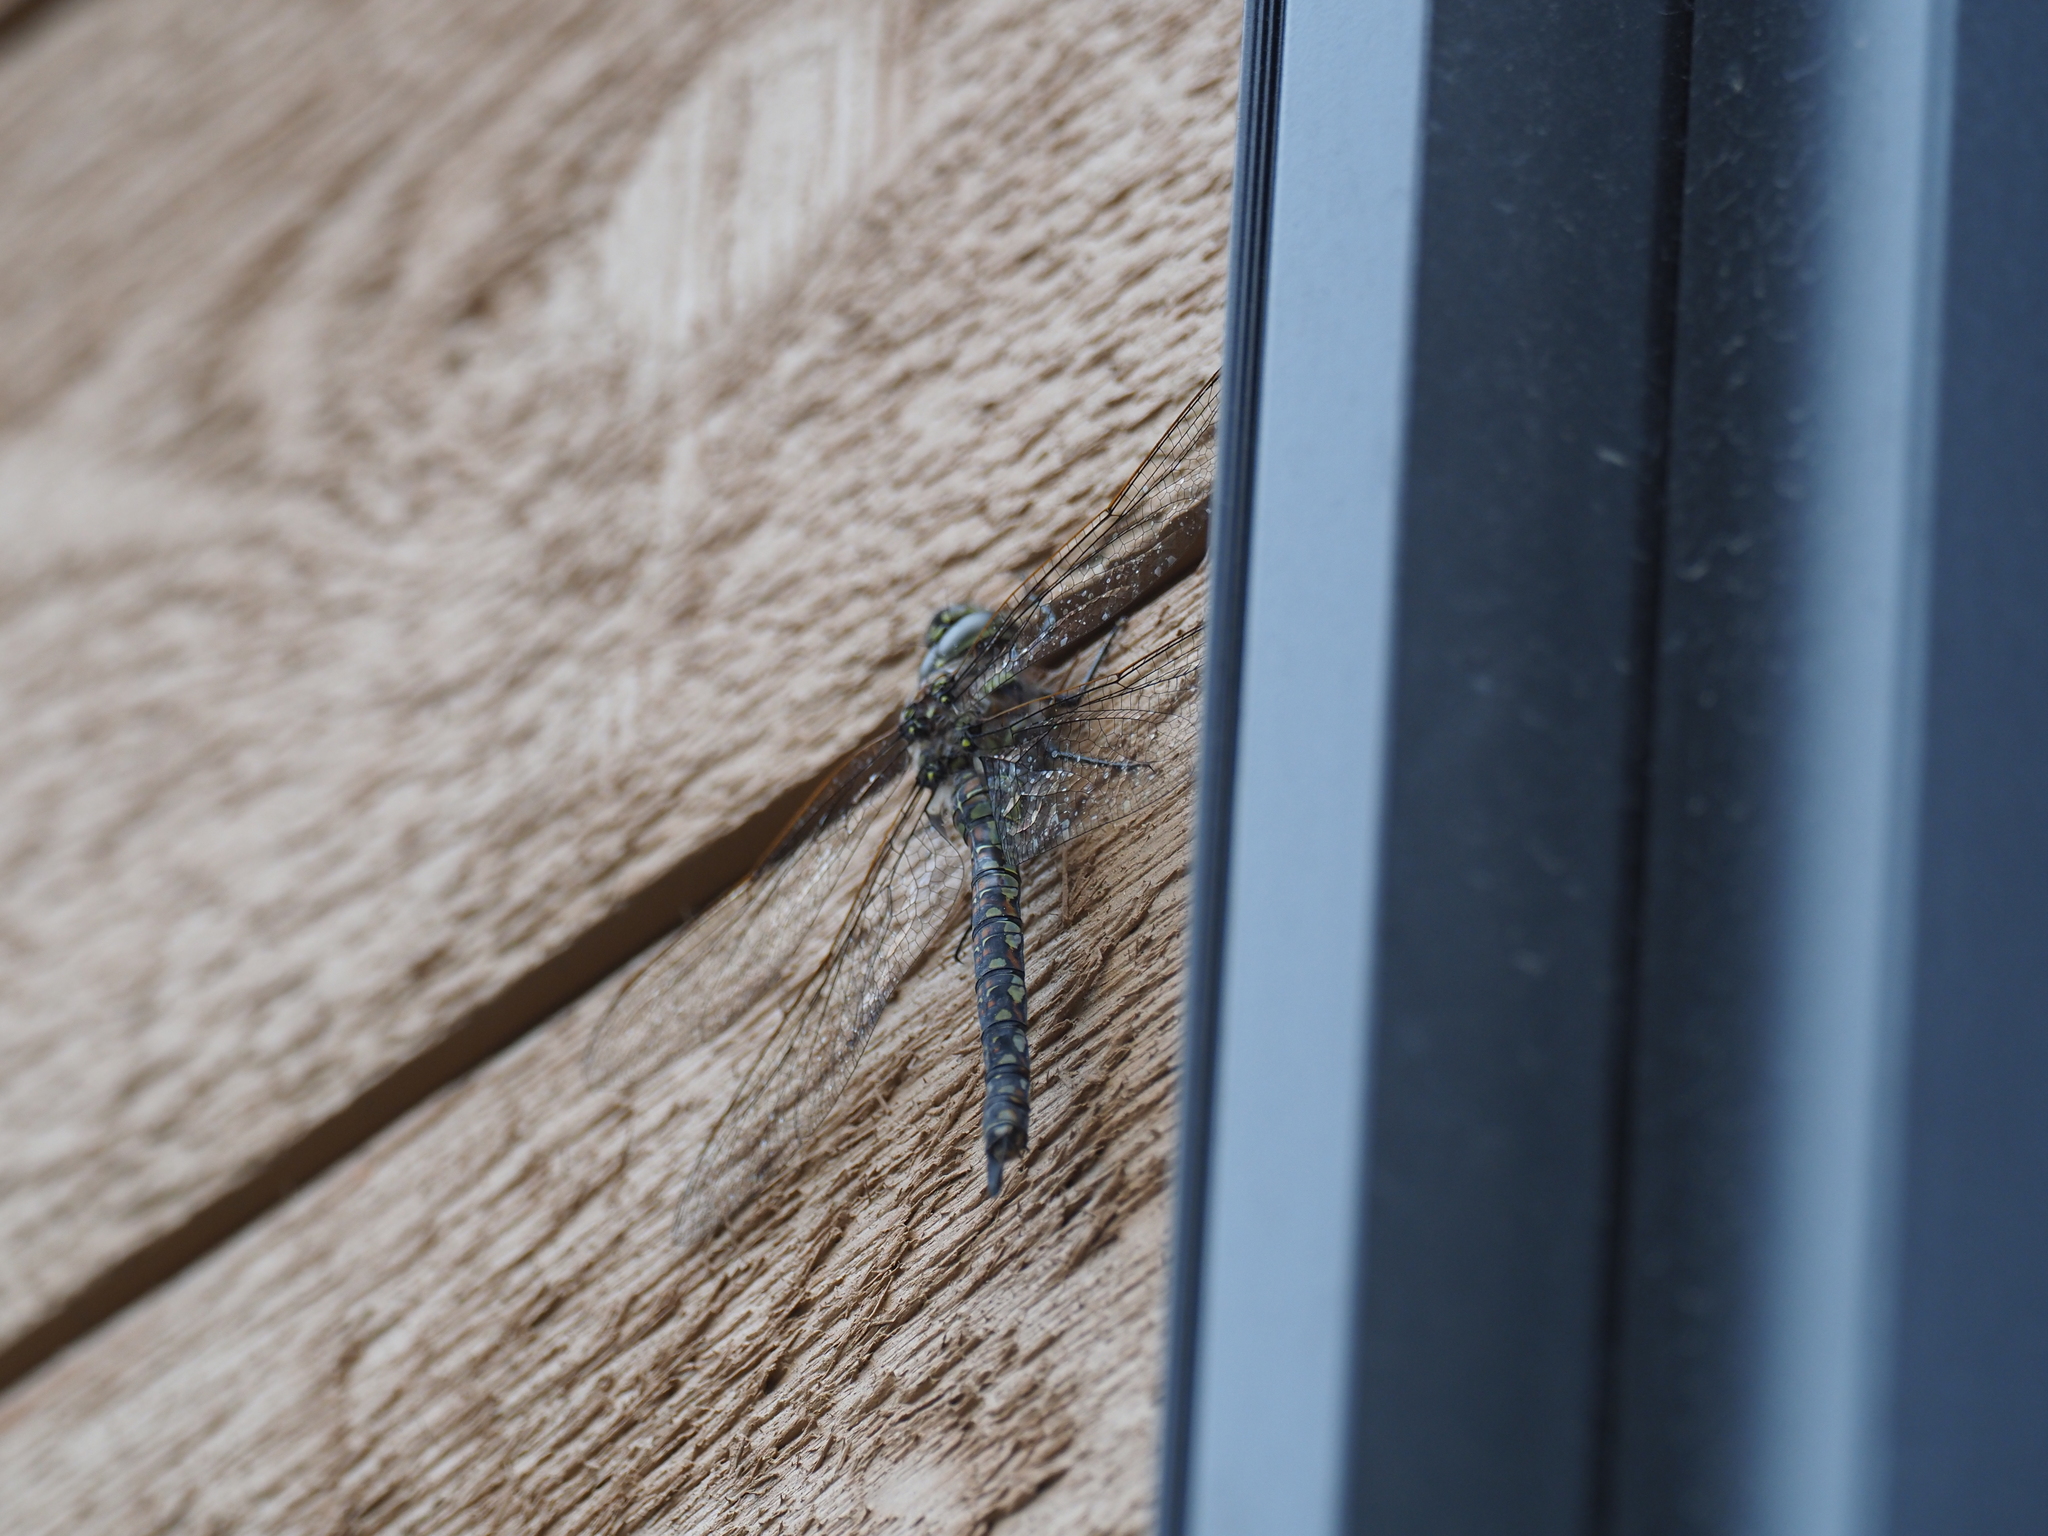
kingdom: Animalia
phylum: Arthropoda
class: Insecta
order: Odonata
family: Aeshnidae
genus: Rhionaeschna
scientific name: Rhionaeschna californica
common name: California darner
